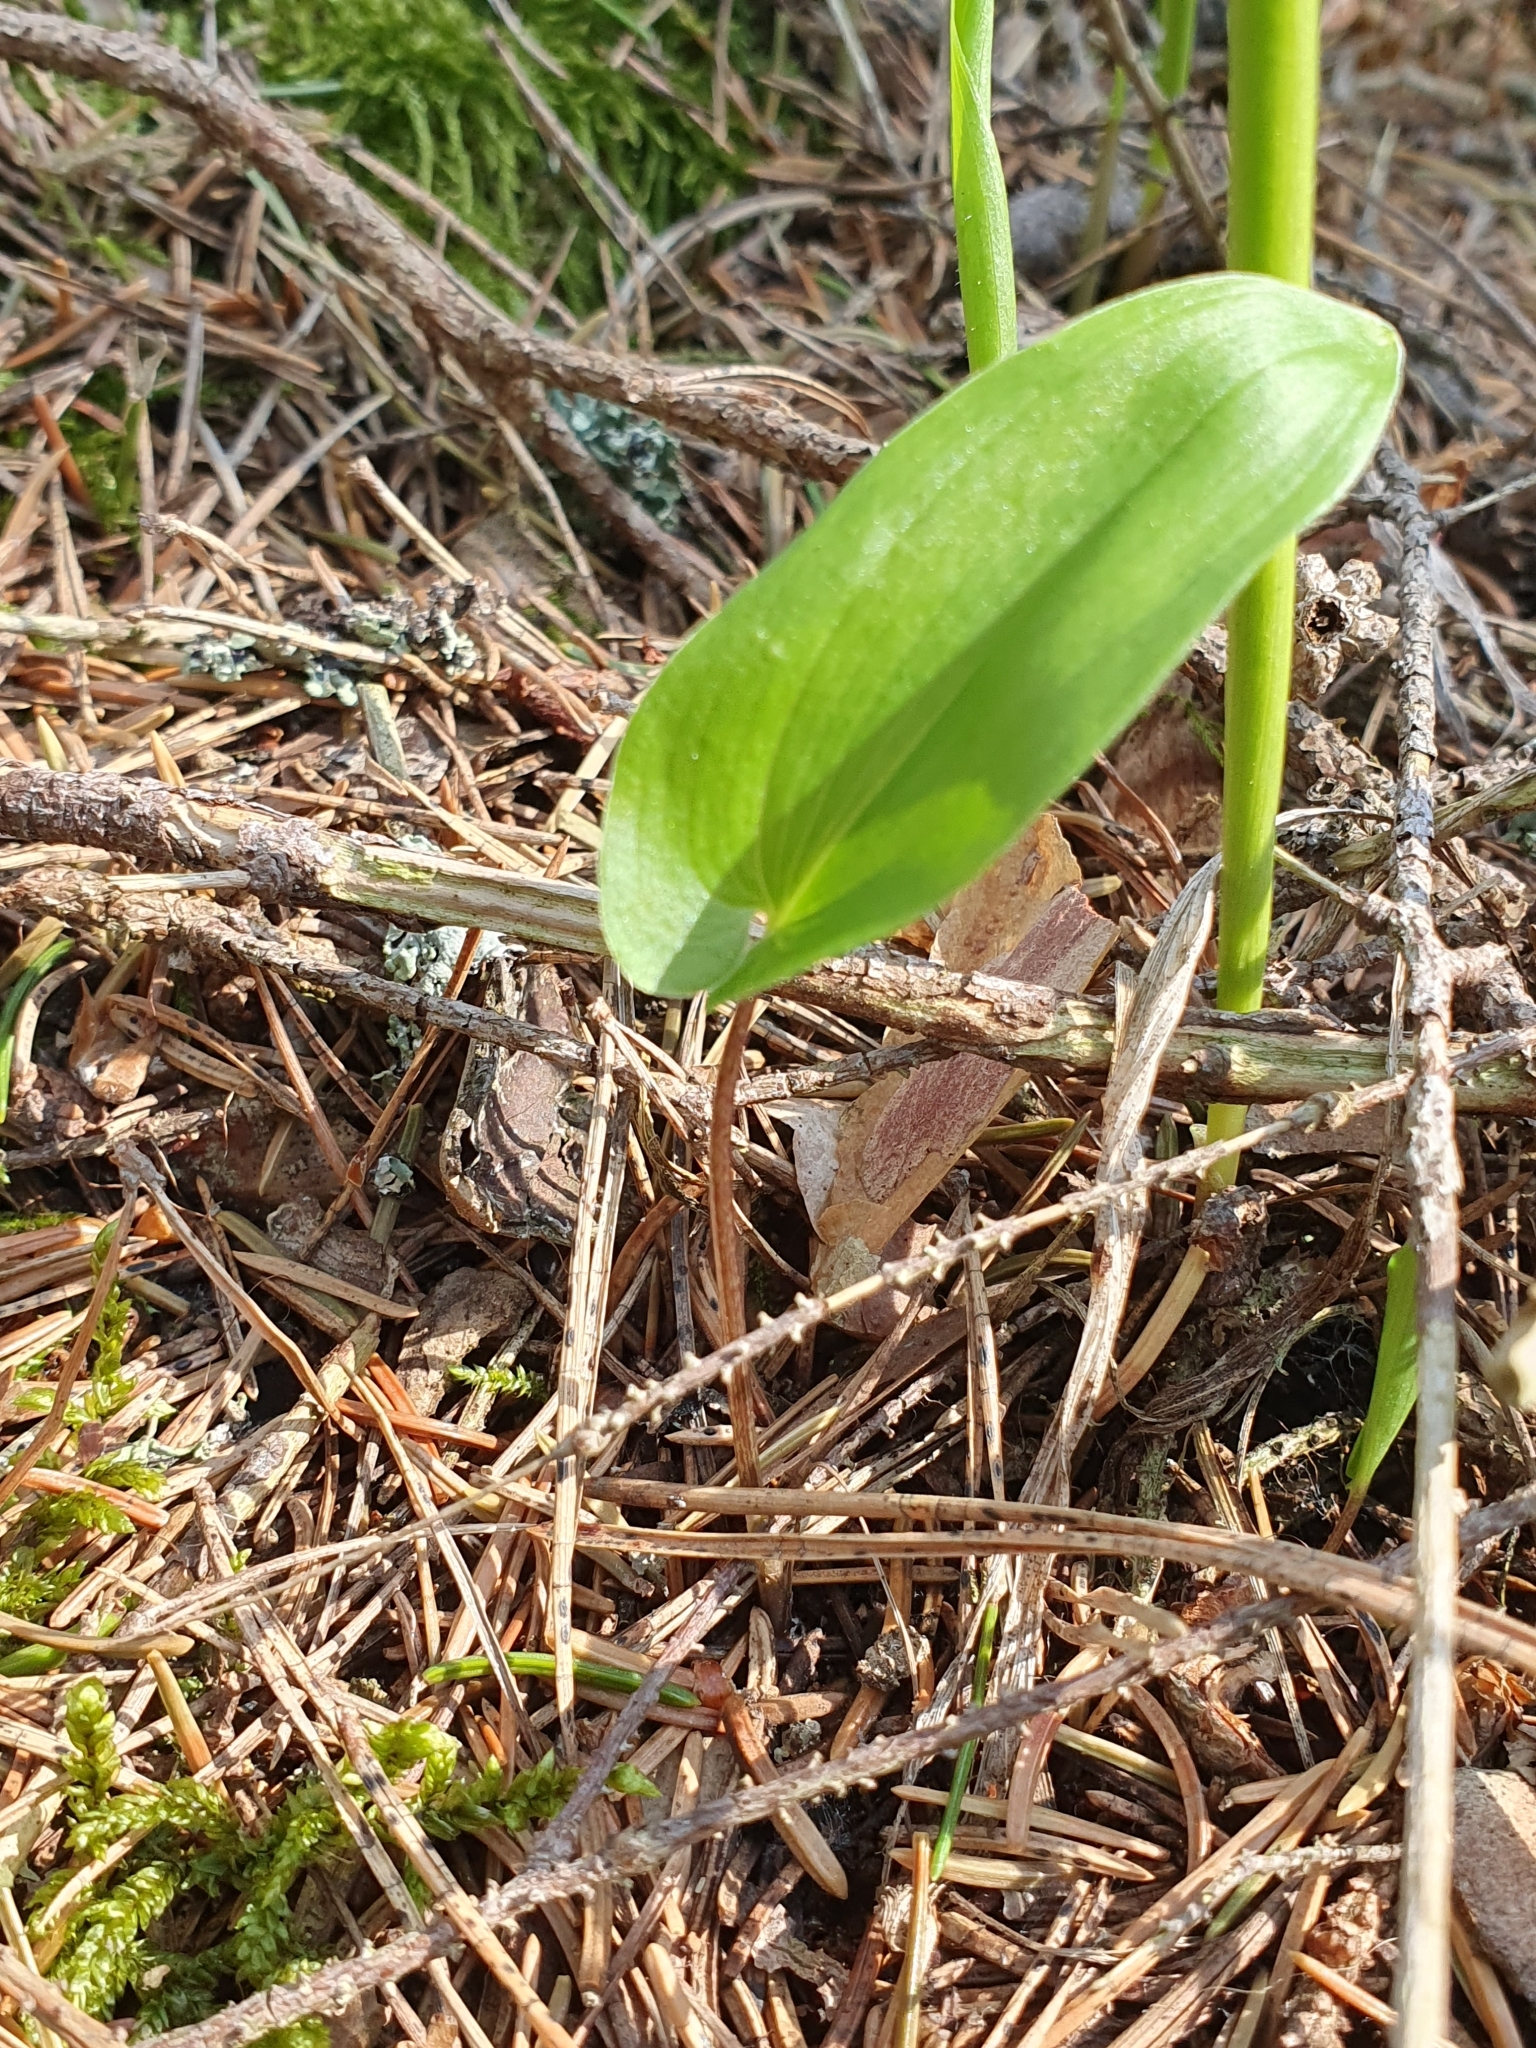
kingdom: Plantae
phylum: Tracheophyta
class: Liliopsida
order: Asparagales
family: Asparagaceae
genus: Maianthemum
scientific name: Maianthemum bifolium
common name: May lily
